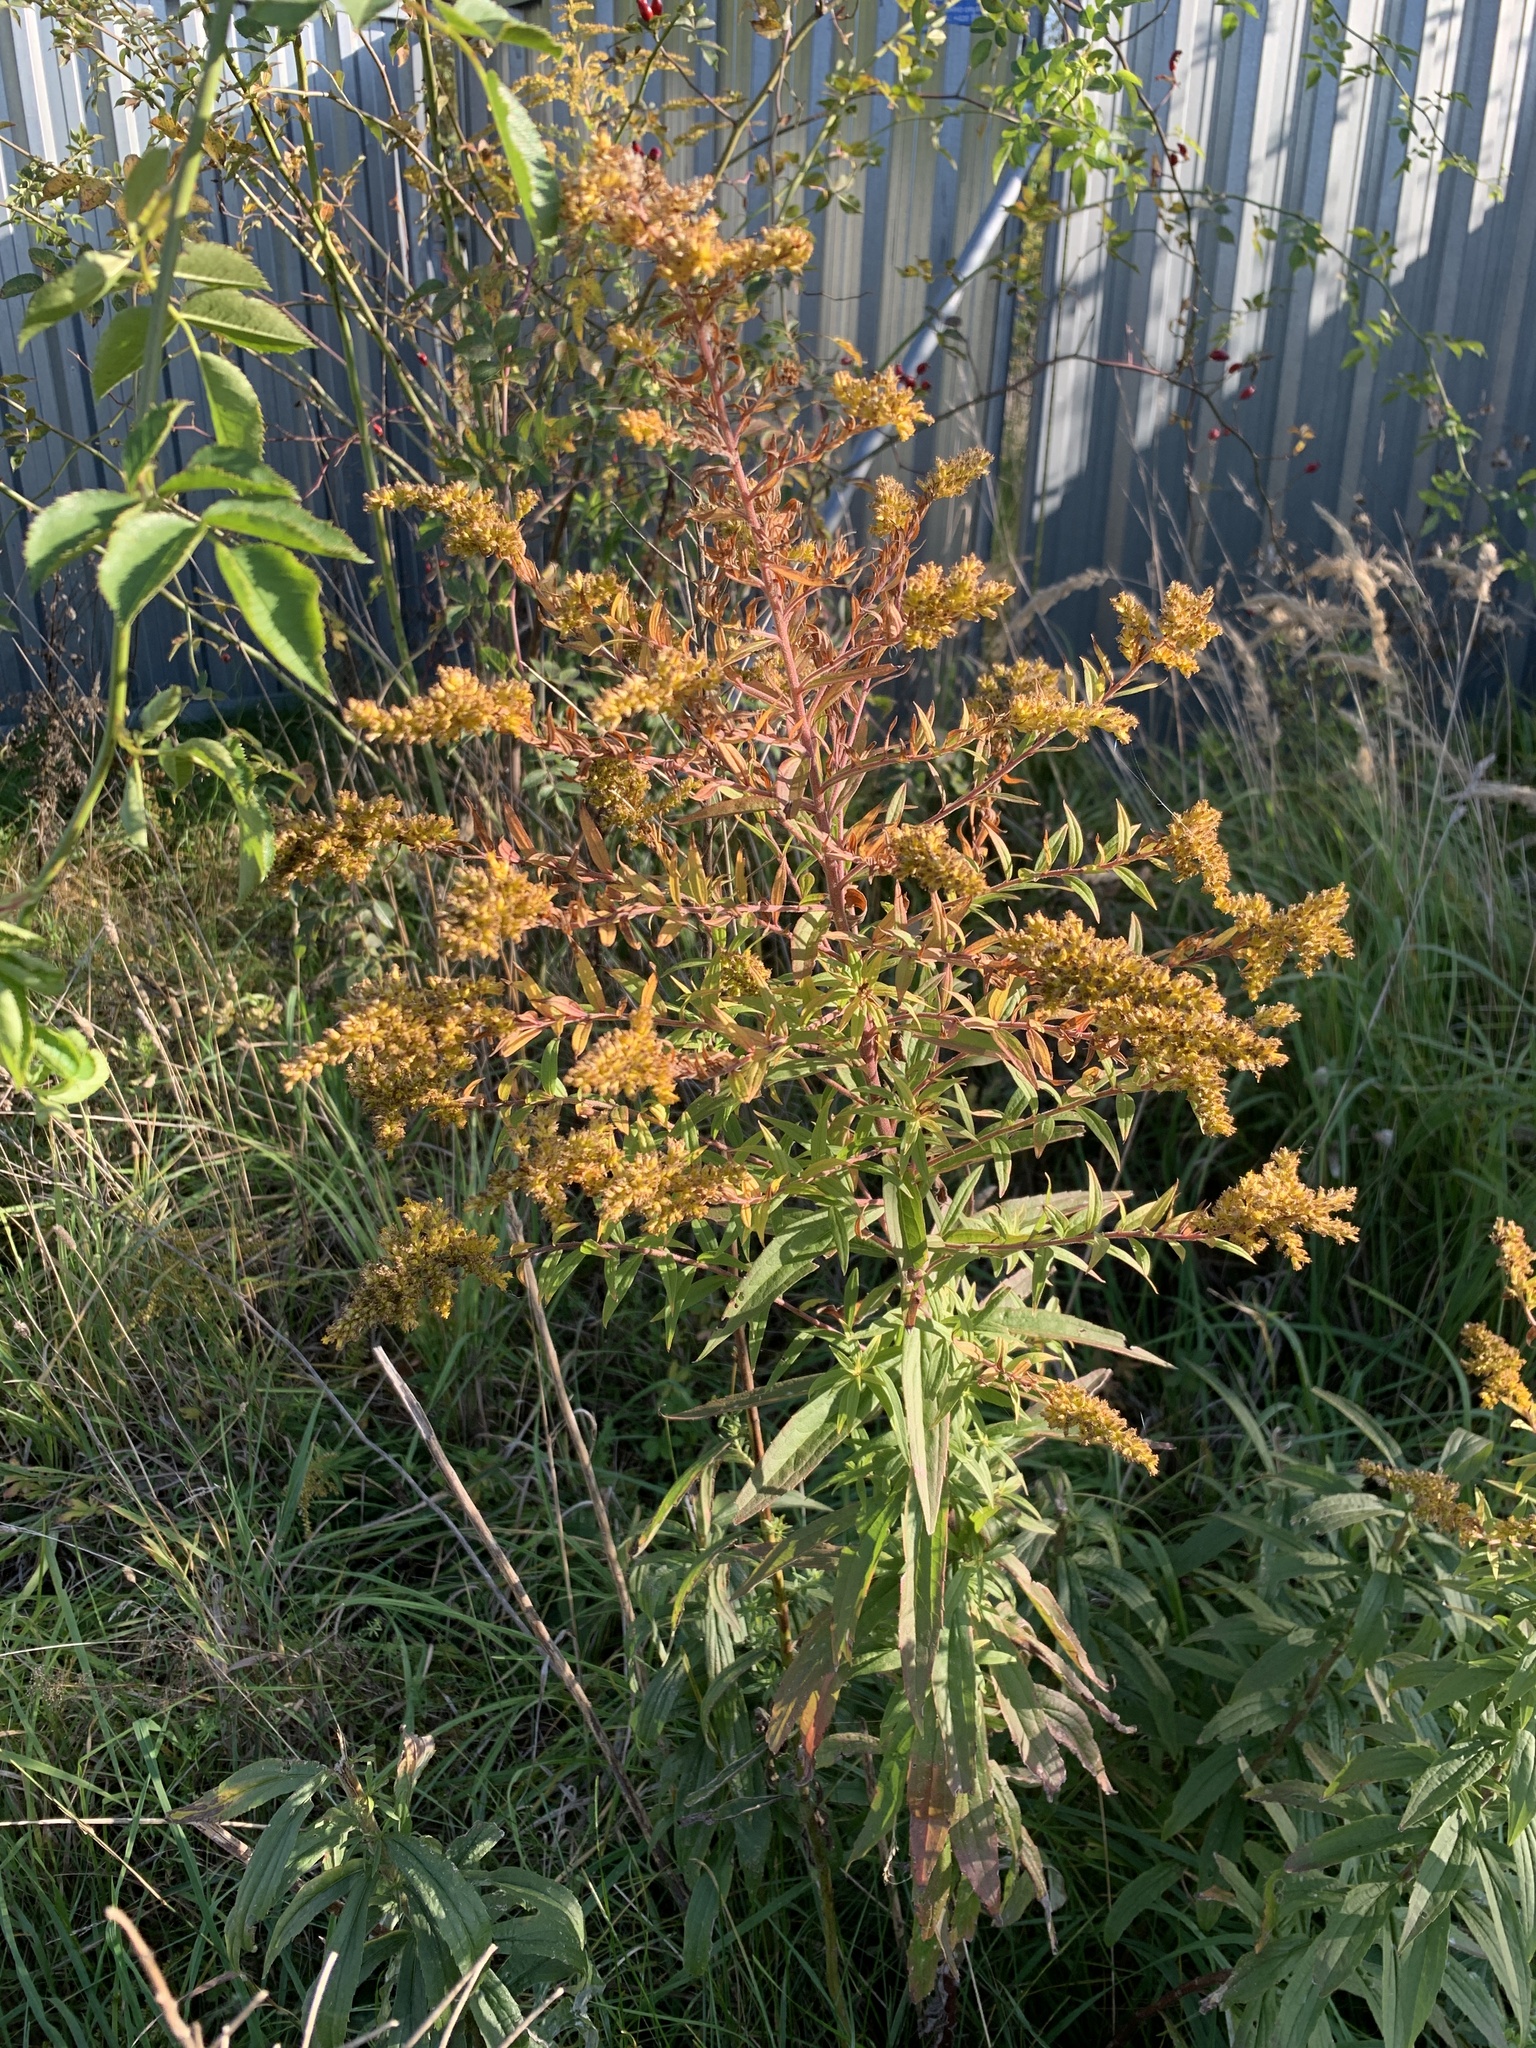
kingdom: Plantae
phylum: Tracheophyta
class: Magnoliopsida
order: Asterales
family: Asteraceae
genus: Solidago
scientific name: Solidago canadensis
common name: Canada goldenrod
